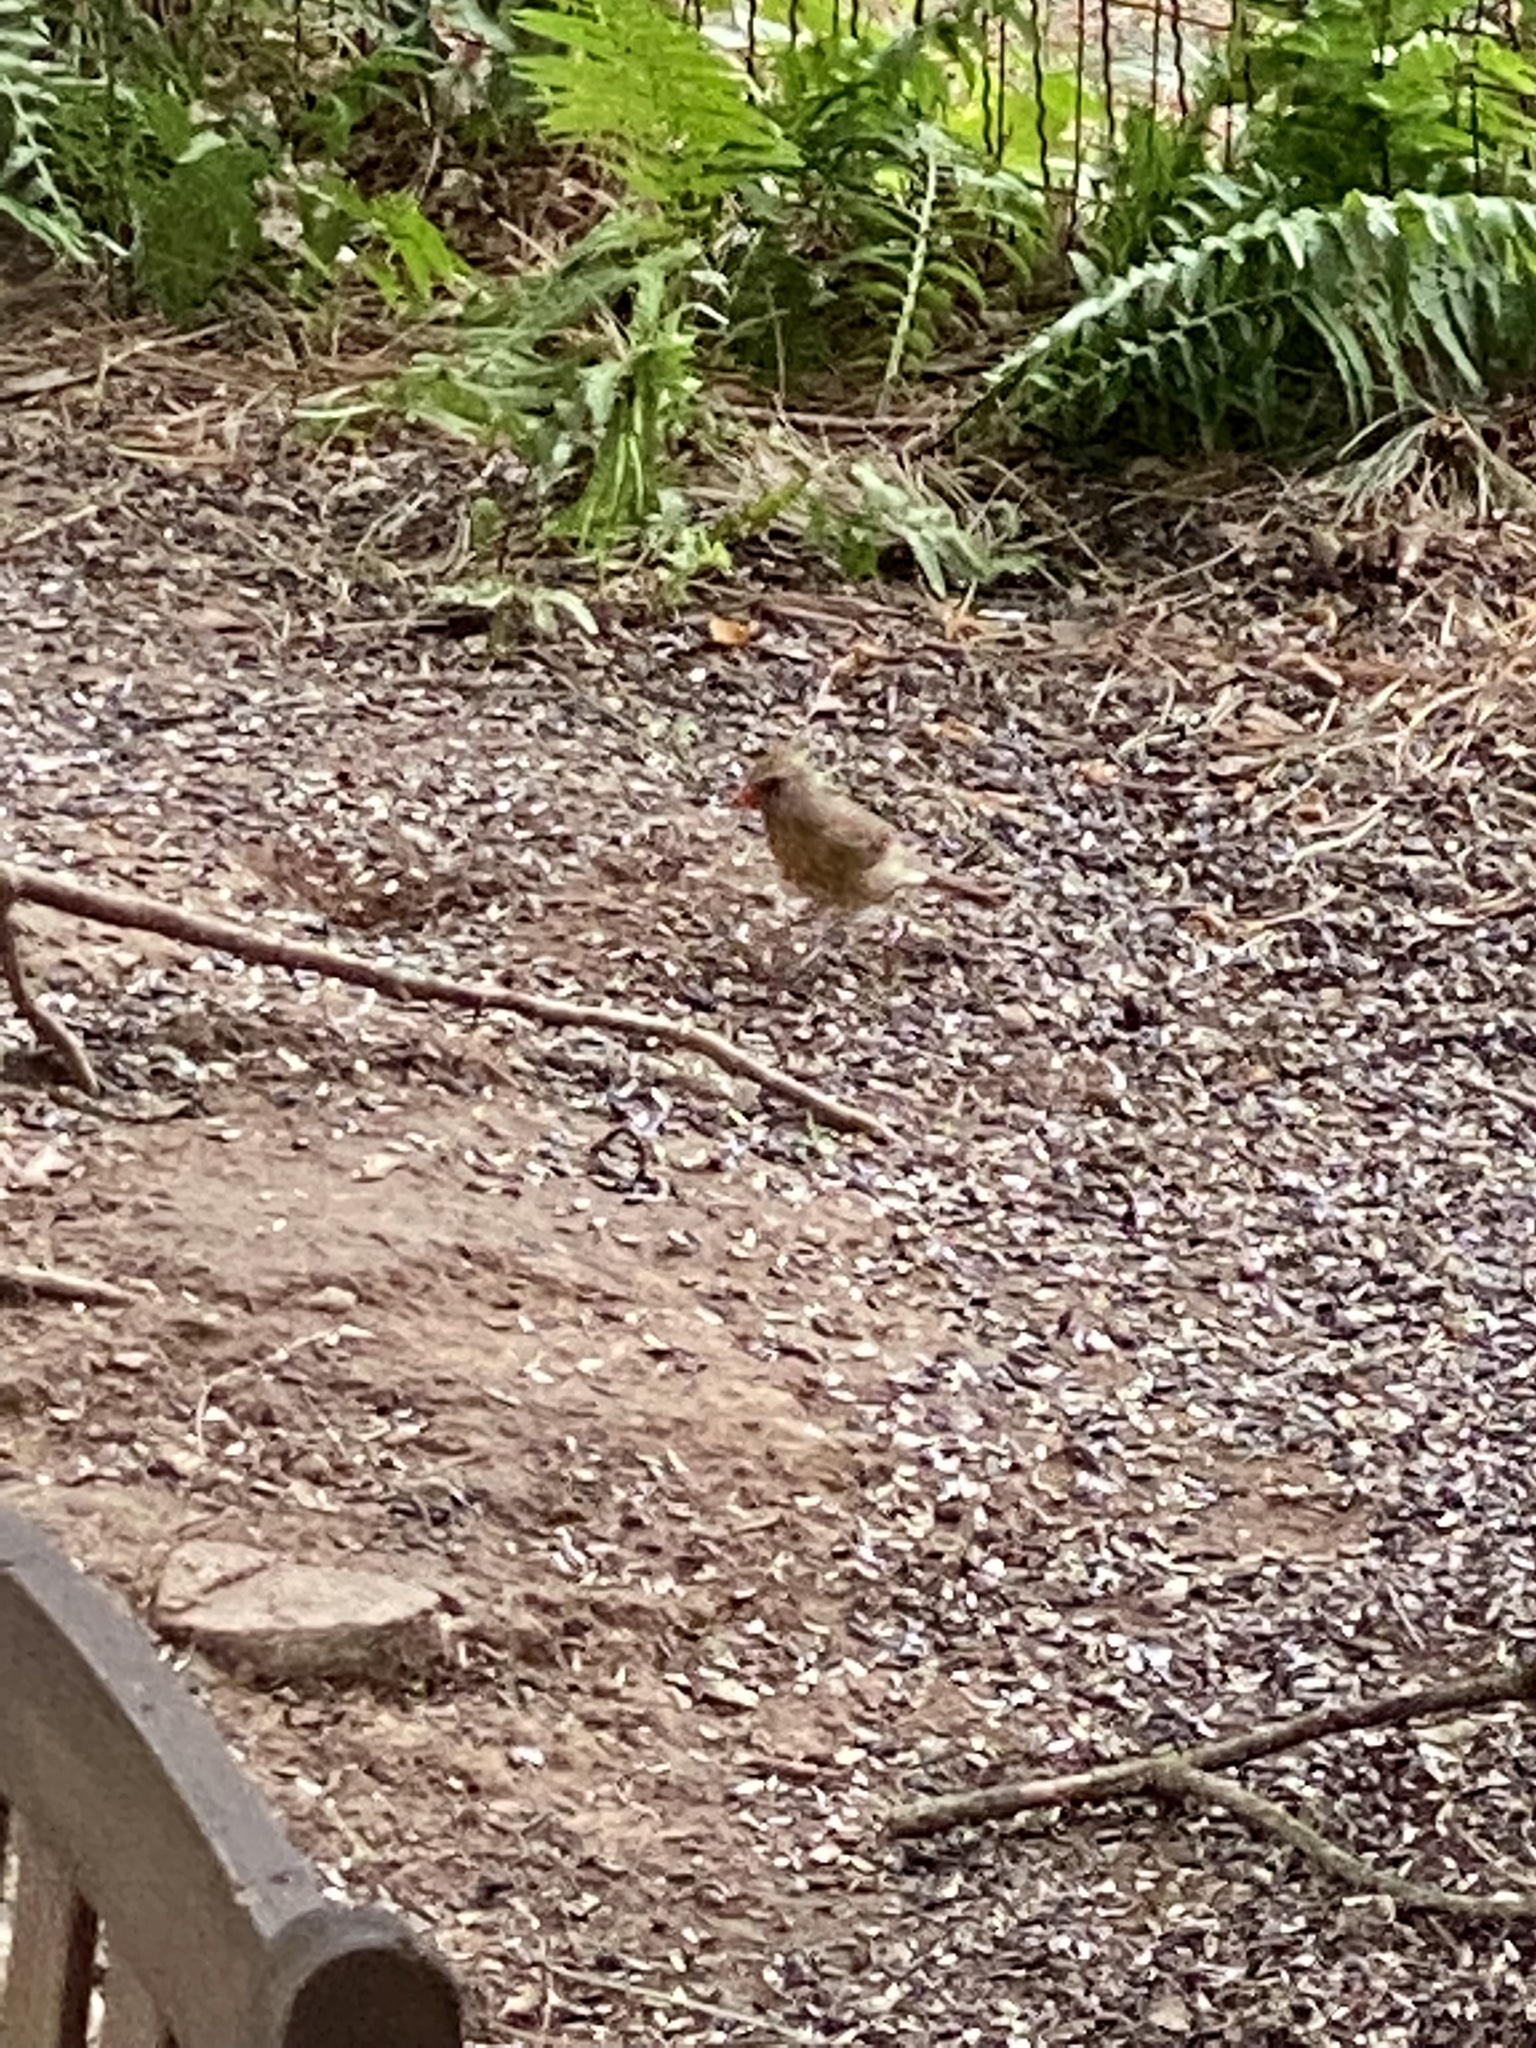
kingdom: Animalia
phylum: Chordata
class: Aves
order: Passeriformes
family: Cardinalidae
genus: Cardinalis
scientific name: Cardinalis cardinalis
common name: Northern cardinal
